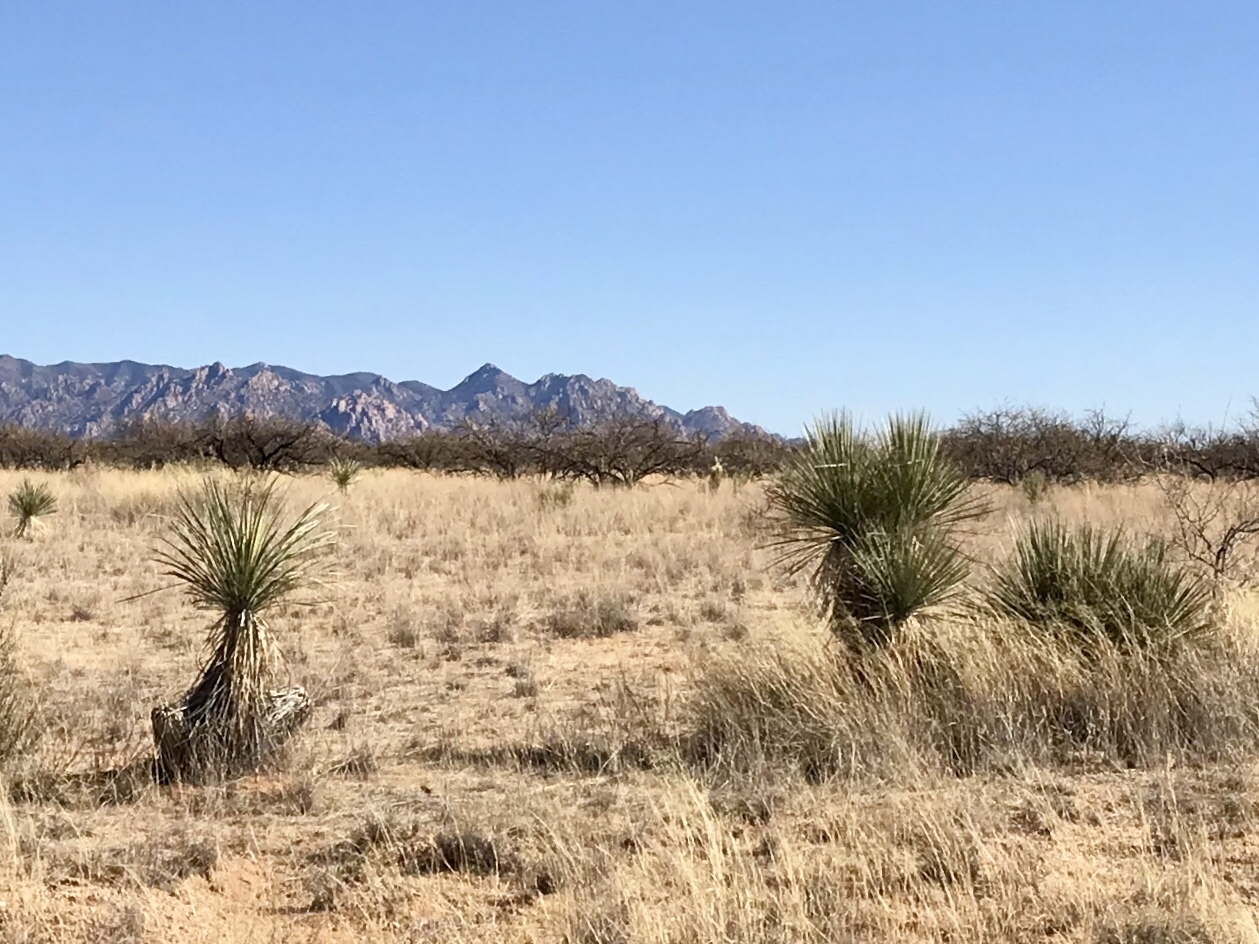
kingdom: Plantae
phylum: Tracheophyta
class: Liliopsida
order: Asparagales
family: Asparagaceae
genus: Yucca
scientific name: Yucca elata
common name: Palmella
